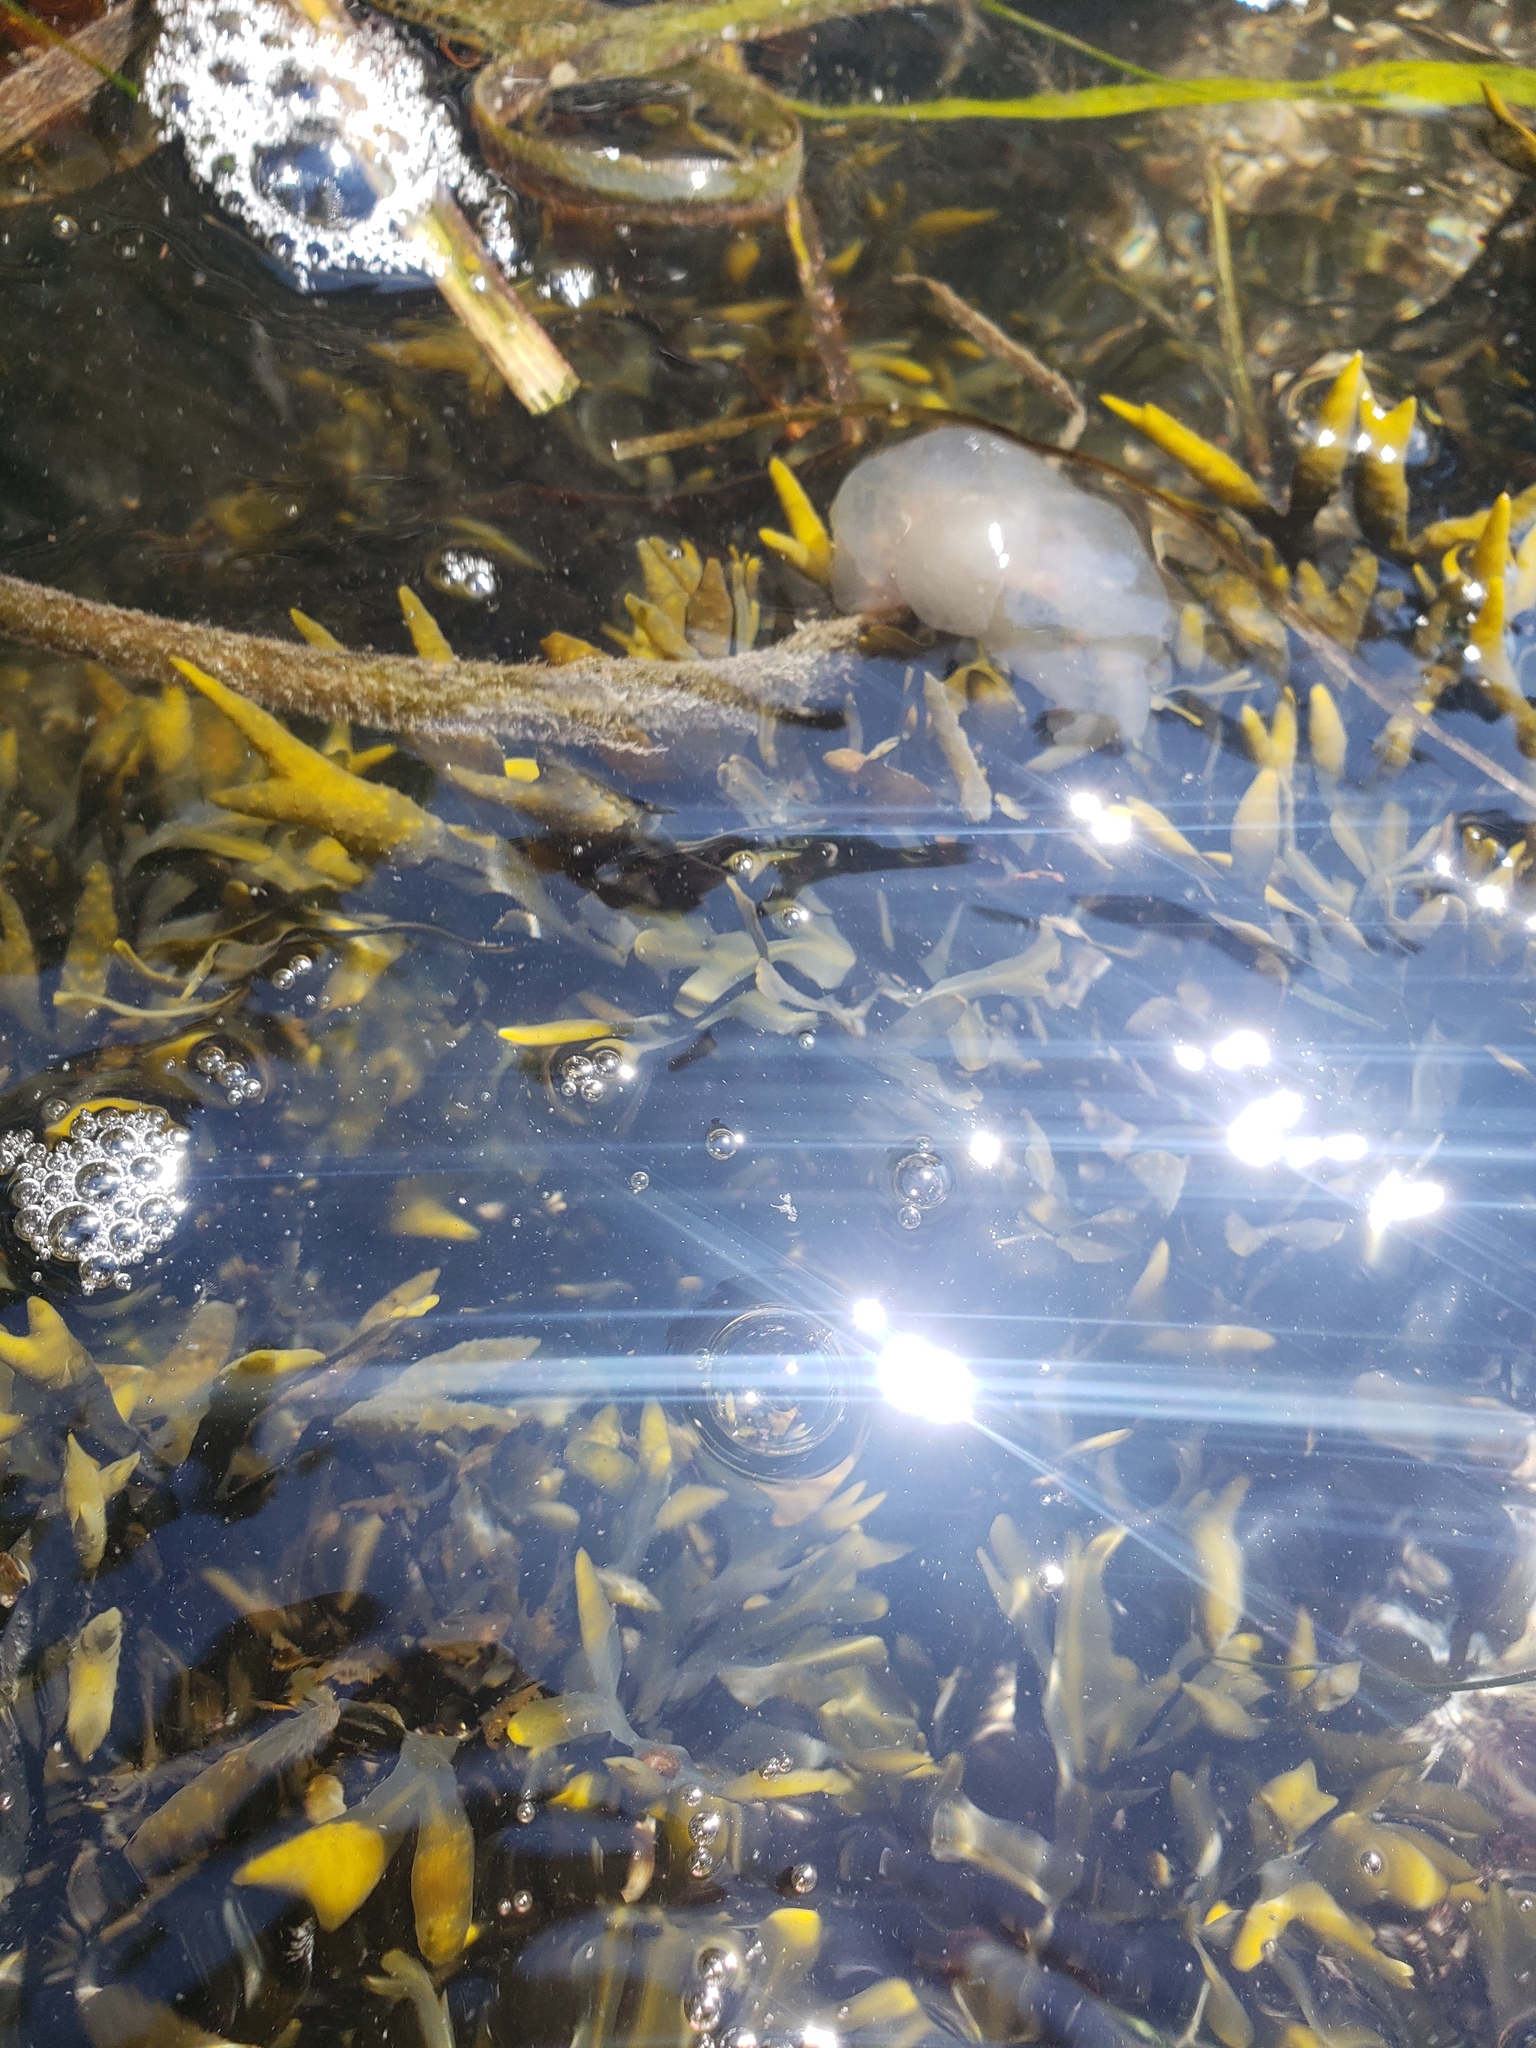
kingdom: Animalia
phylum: Mollusca
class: Gastropoda
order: Nudibranchia
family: Tethydidae
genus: Melibe
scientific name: Melibe leonina
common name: Lion nudibranch
